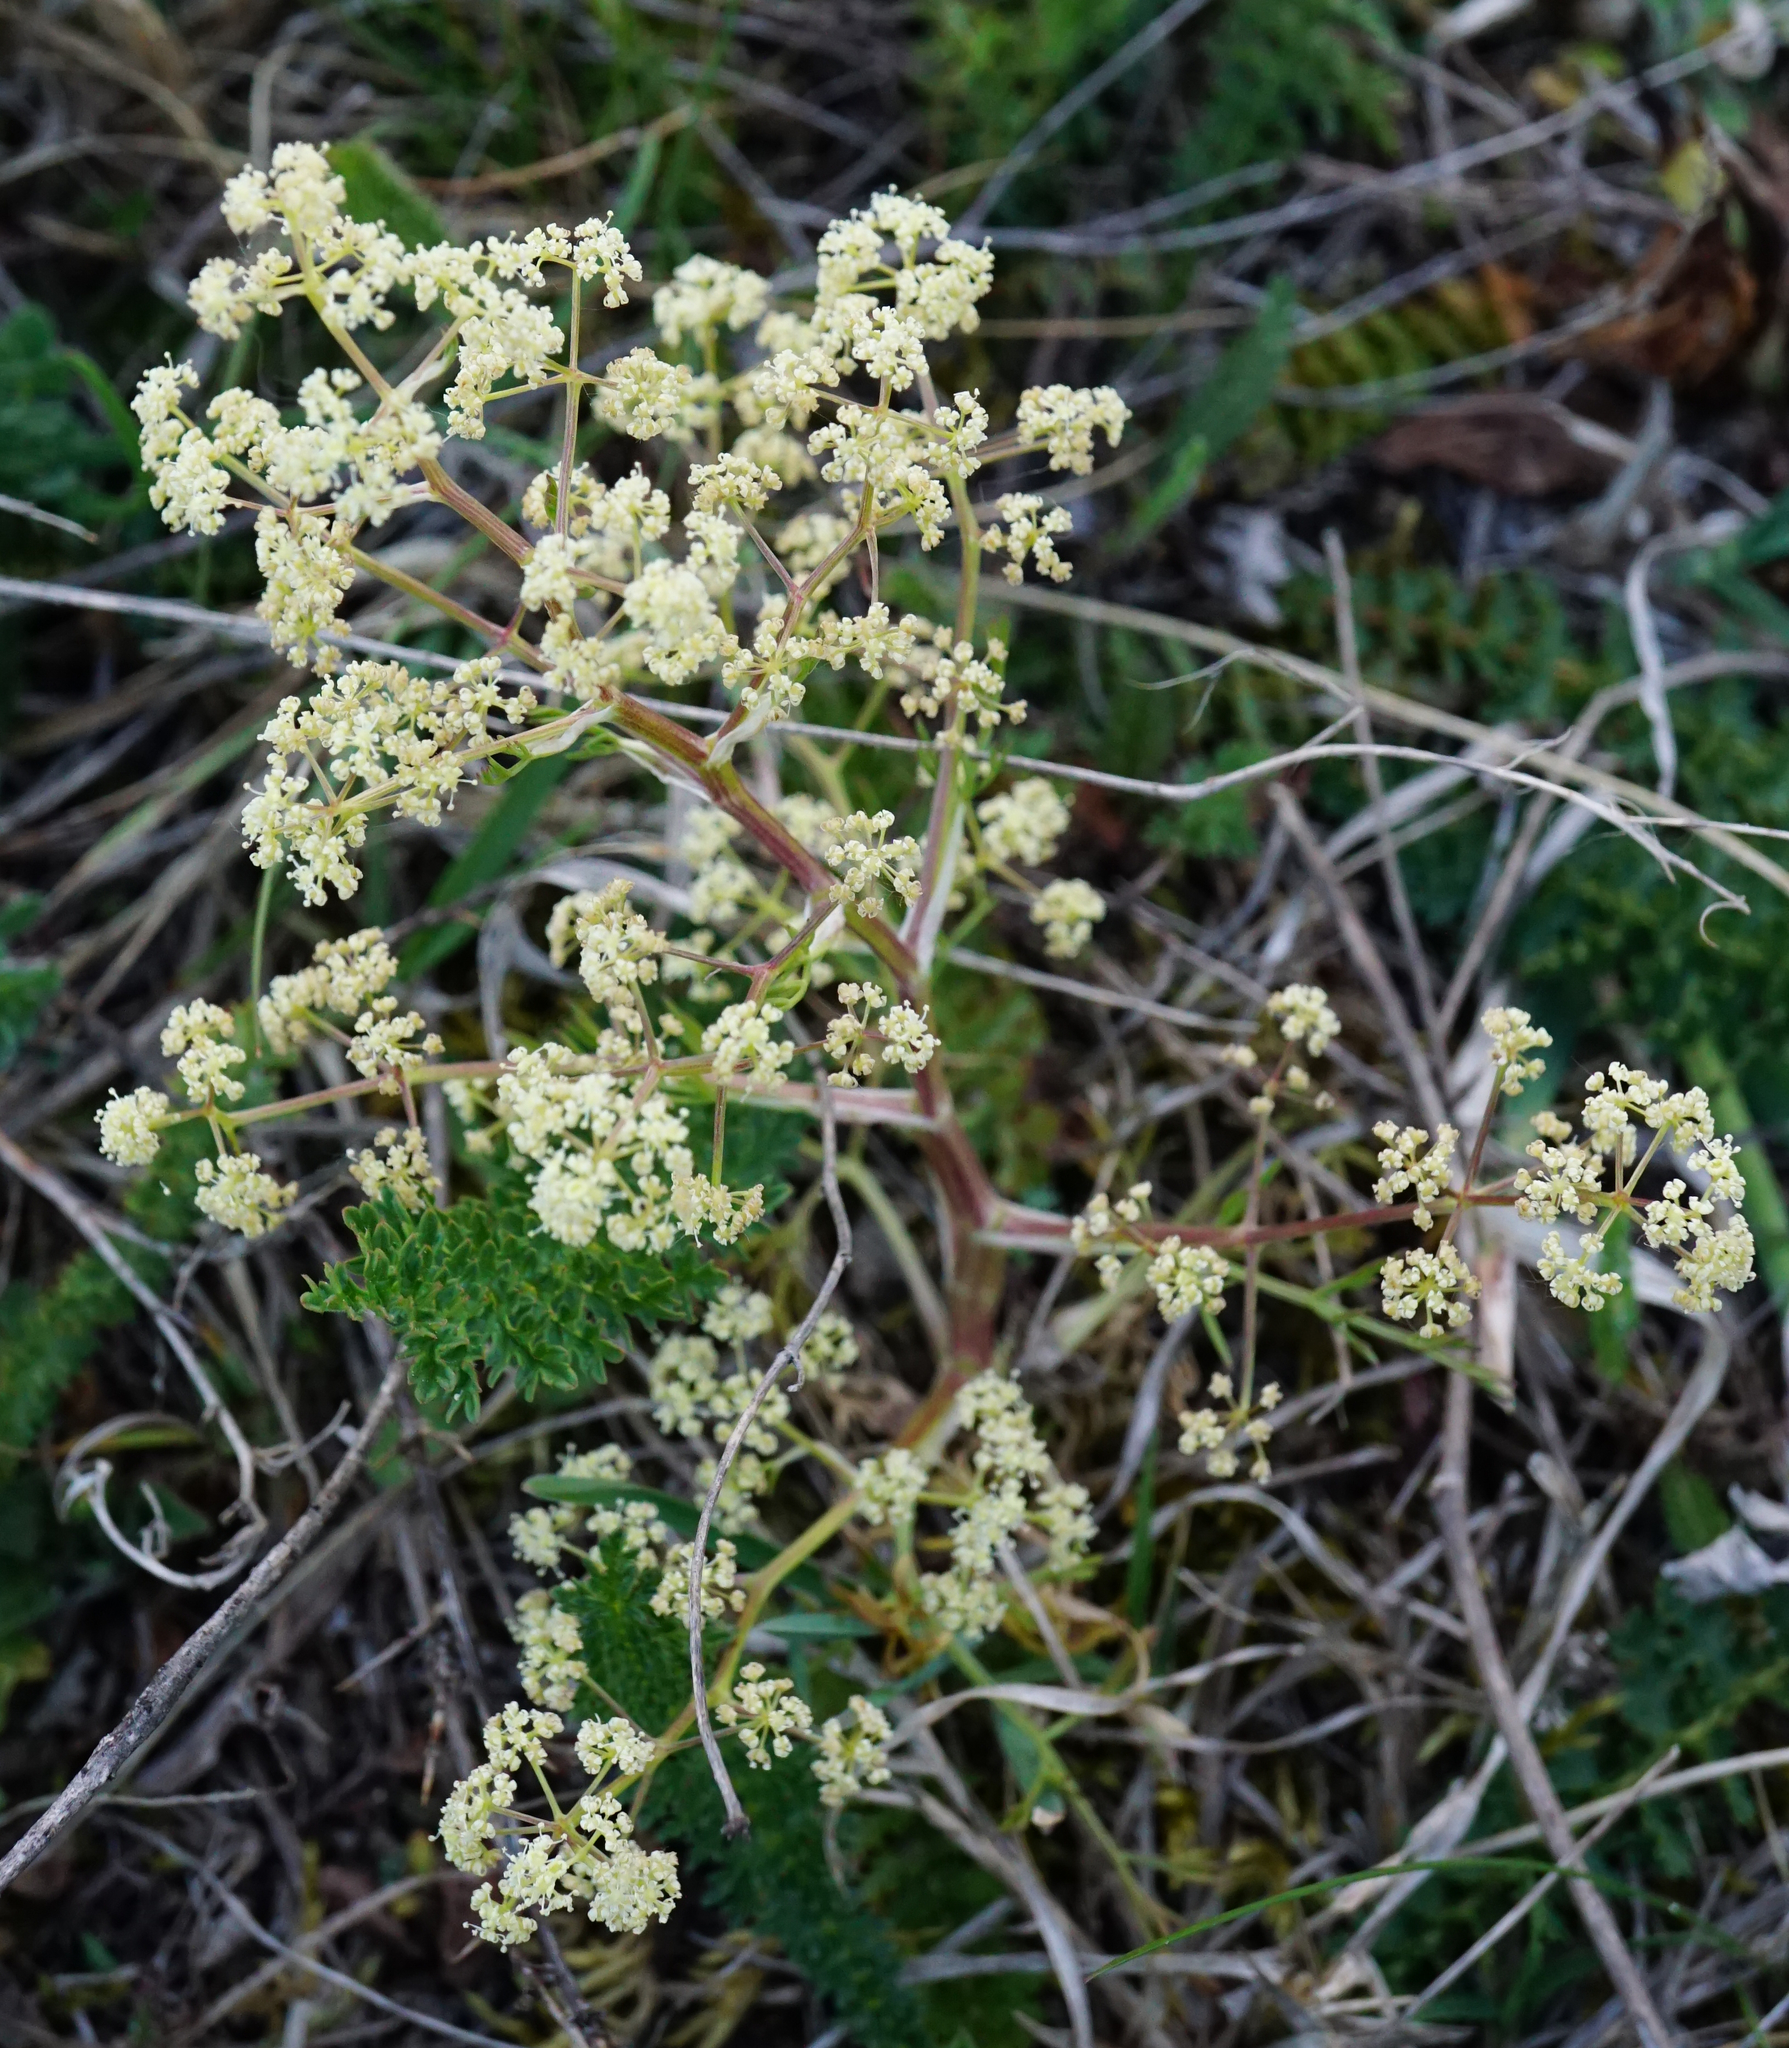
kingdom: Plantae
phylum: Tracheophyta
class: Magnoliopsida
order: Apiales
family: Apiaceae
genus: Trinia
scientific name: Trinia glauca
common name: Honewort
